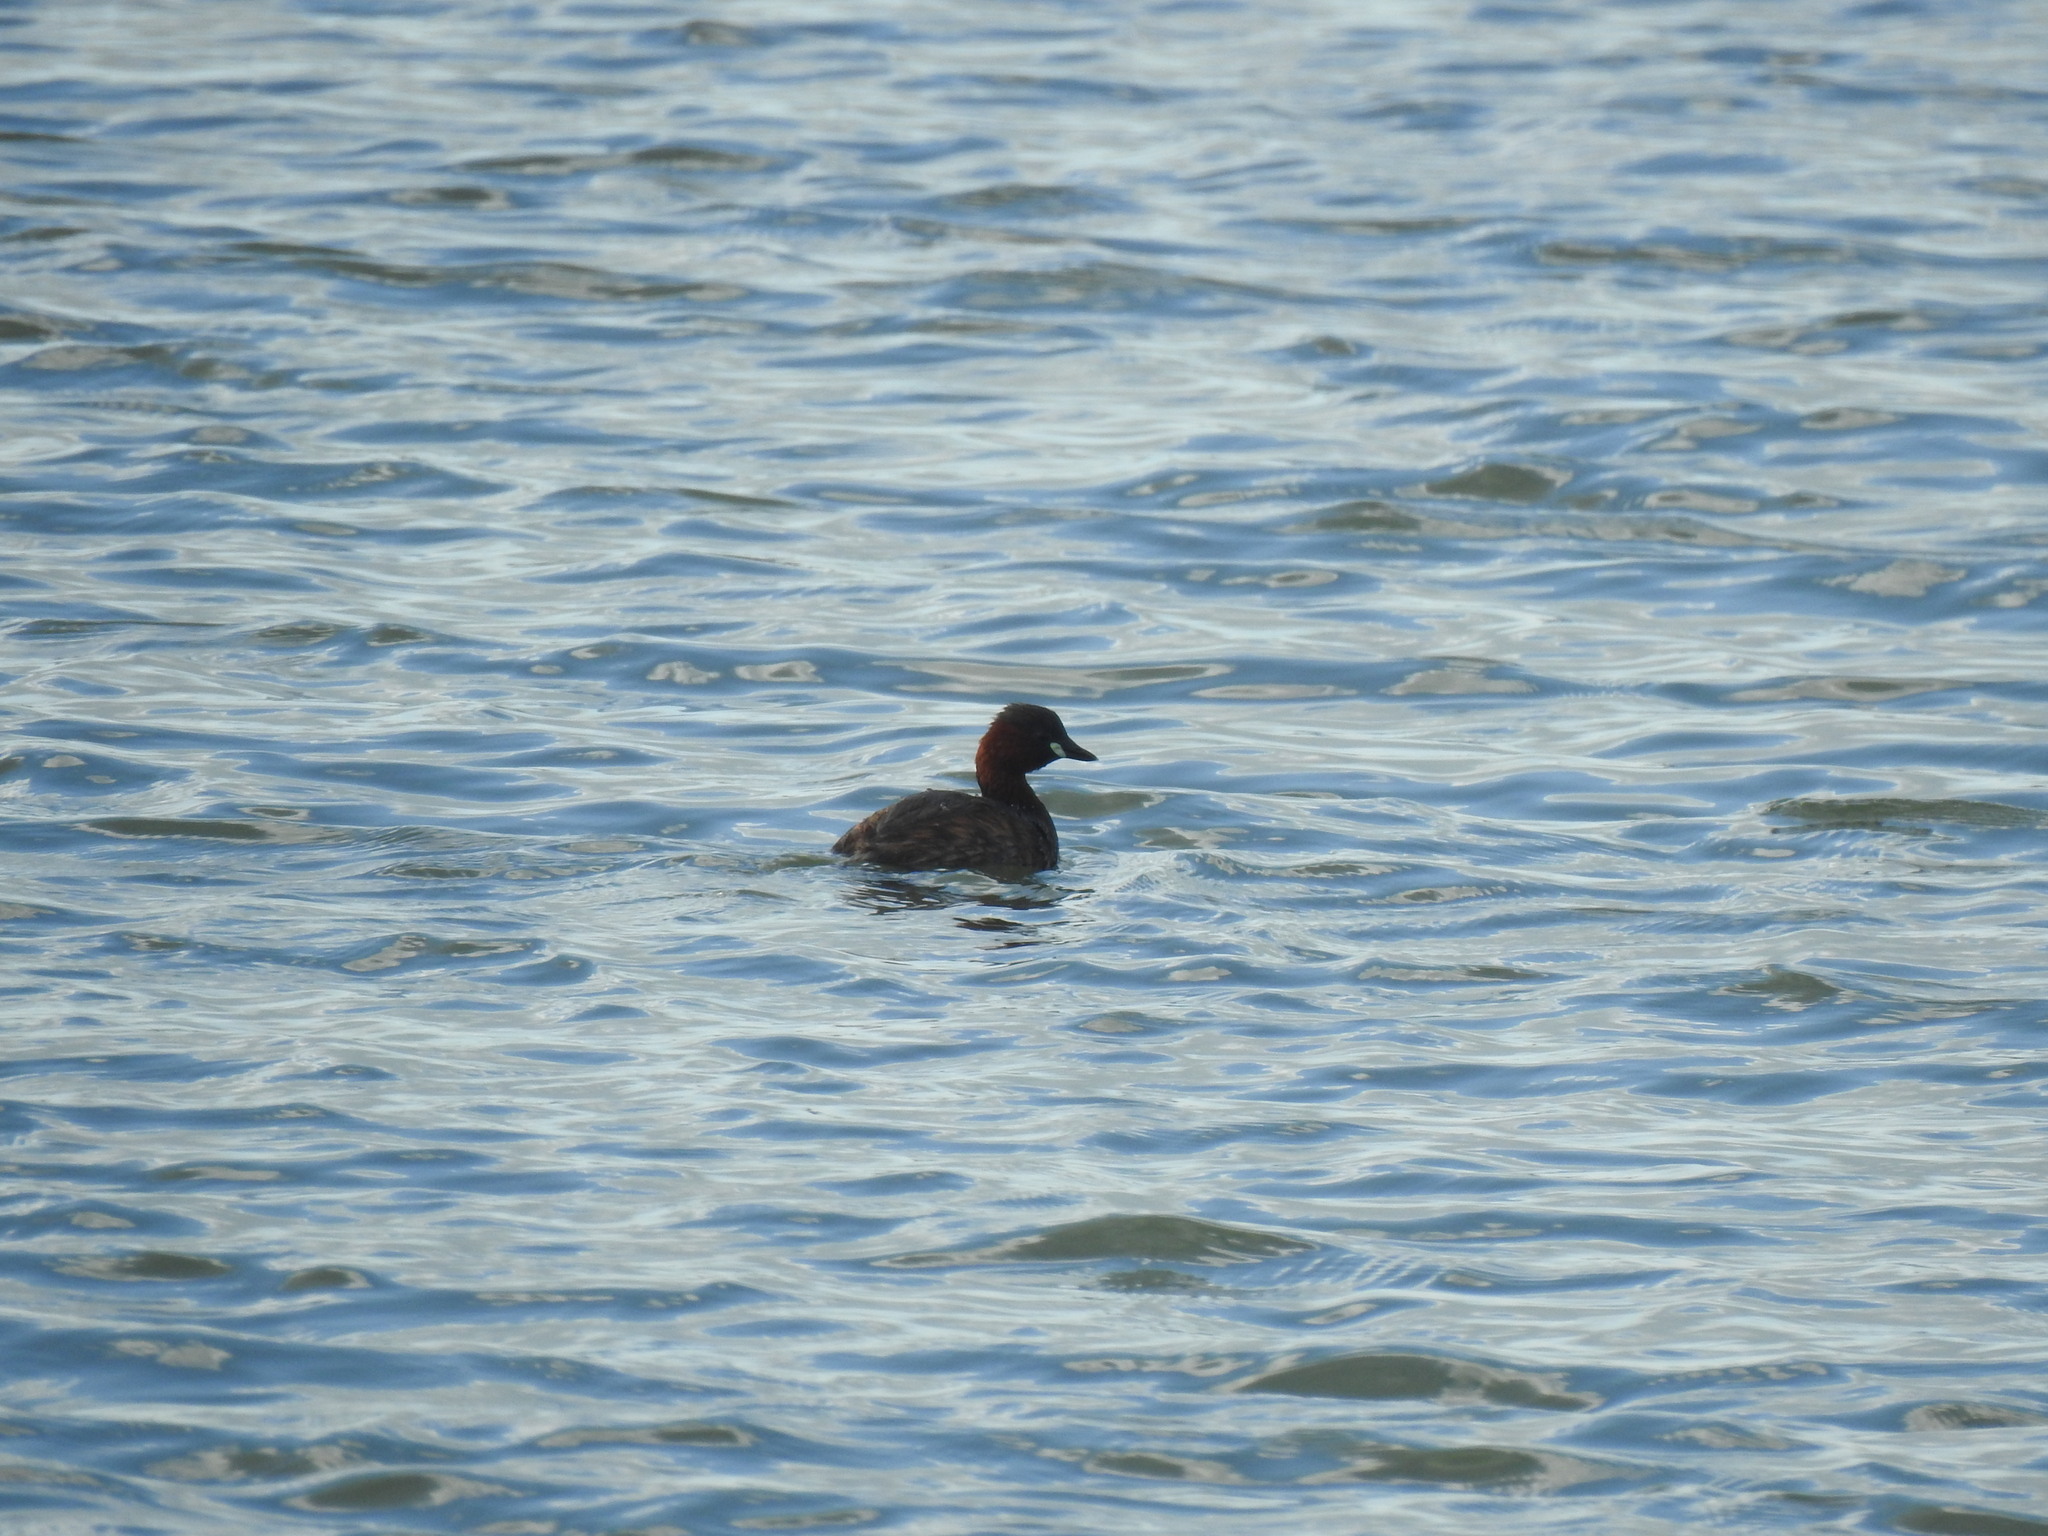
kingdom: Animalia
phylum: Chordata
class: Aves
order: Podicipediformes
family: Podicipedidae
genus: Tachybaptus
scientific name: Tachybaptus ruficollis
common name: Little grebe
